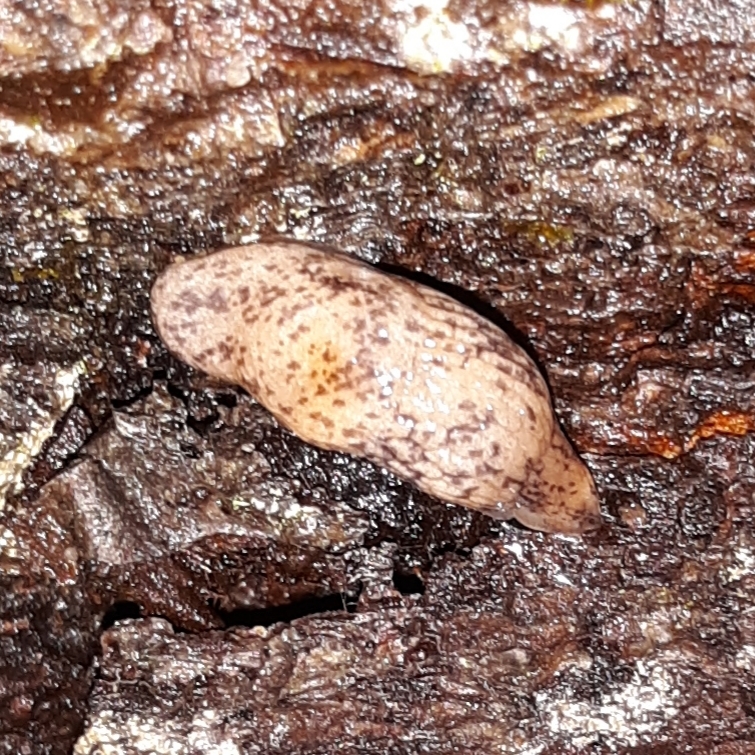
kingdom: Animalia
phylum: Mollusca
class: Gastropoda
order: Stylommatophora
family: Agriolimacidae
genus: Deroceras
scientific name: Deroceras reticulatum
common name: Gray field slug
